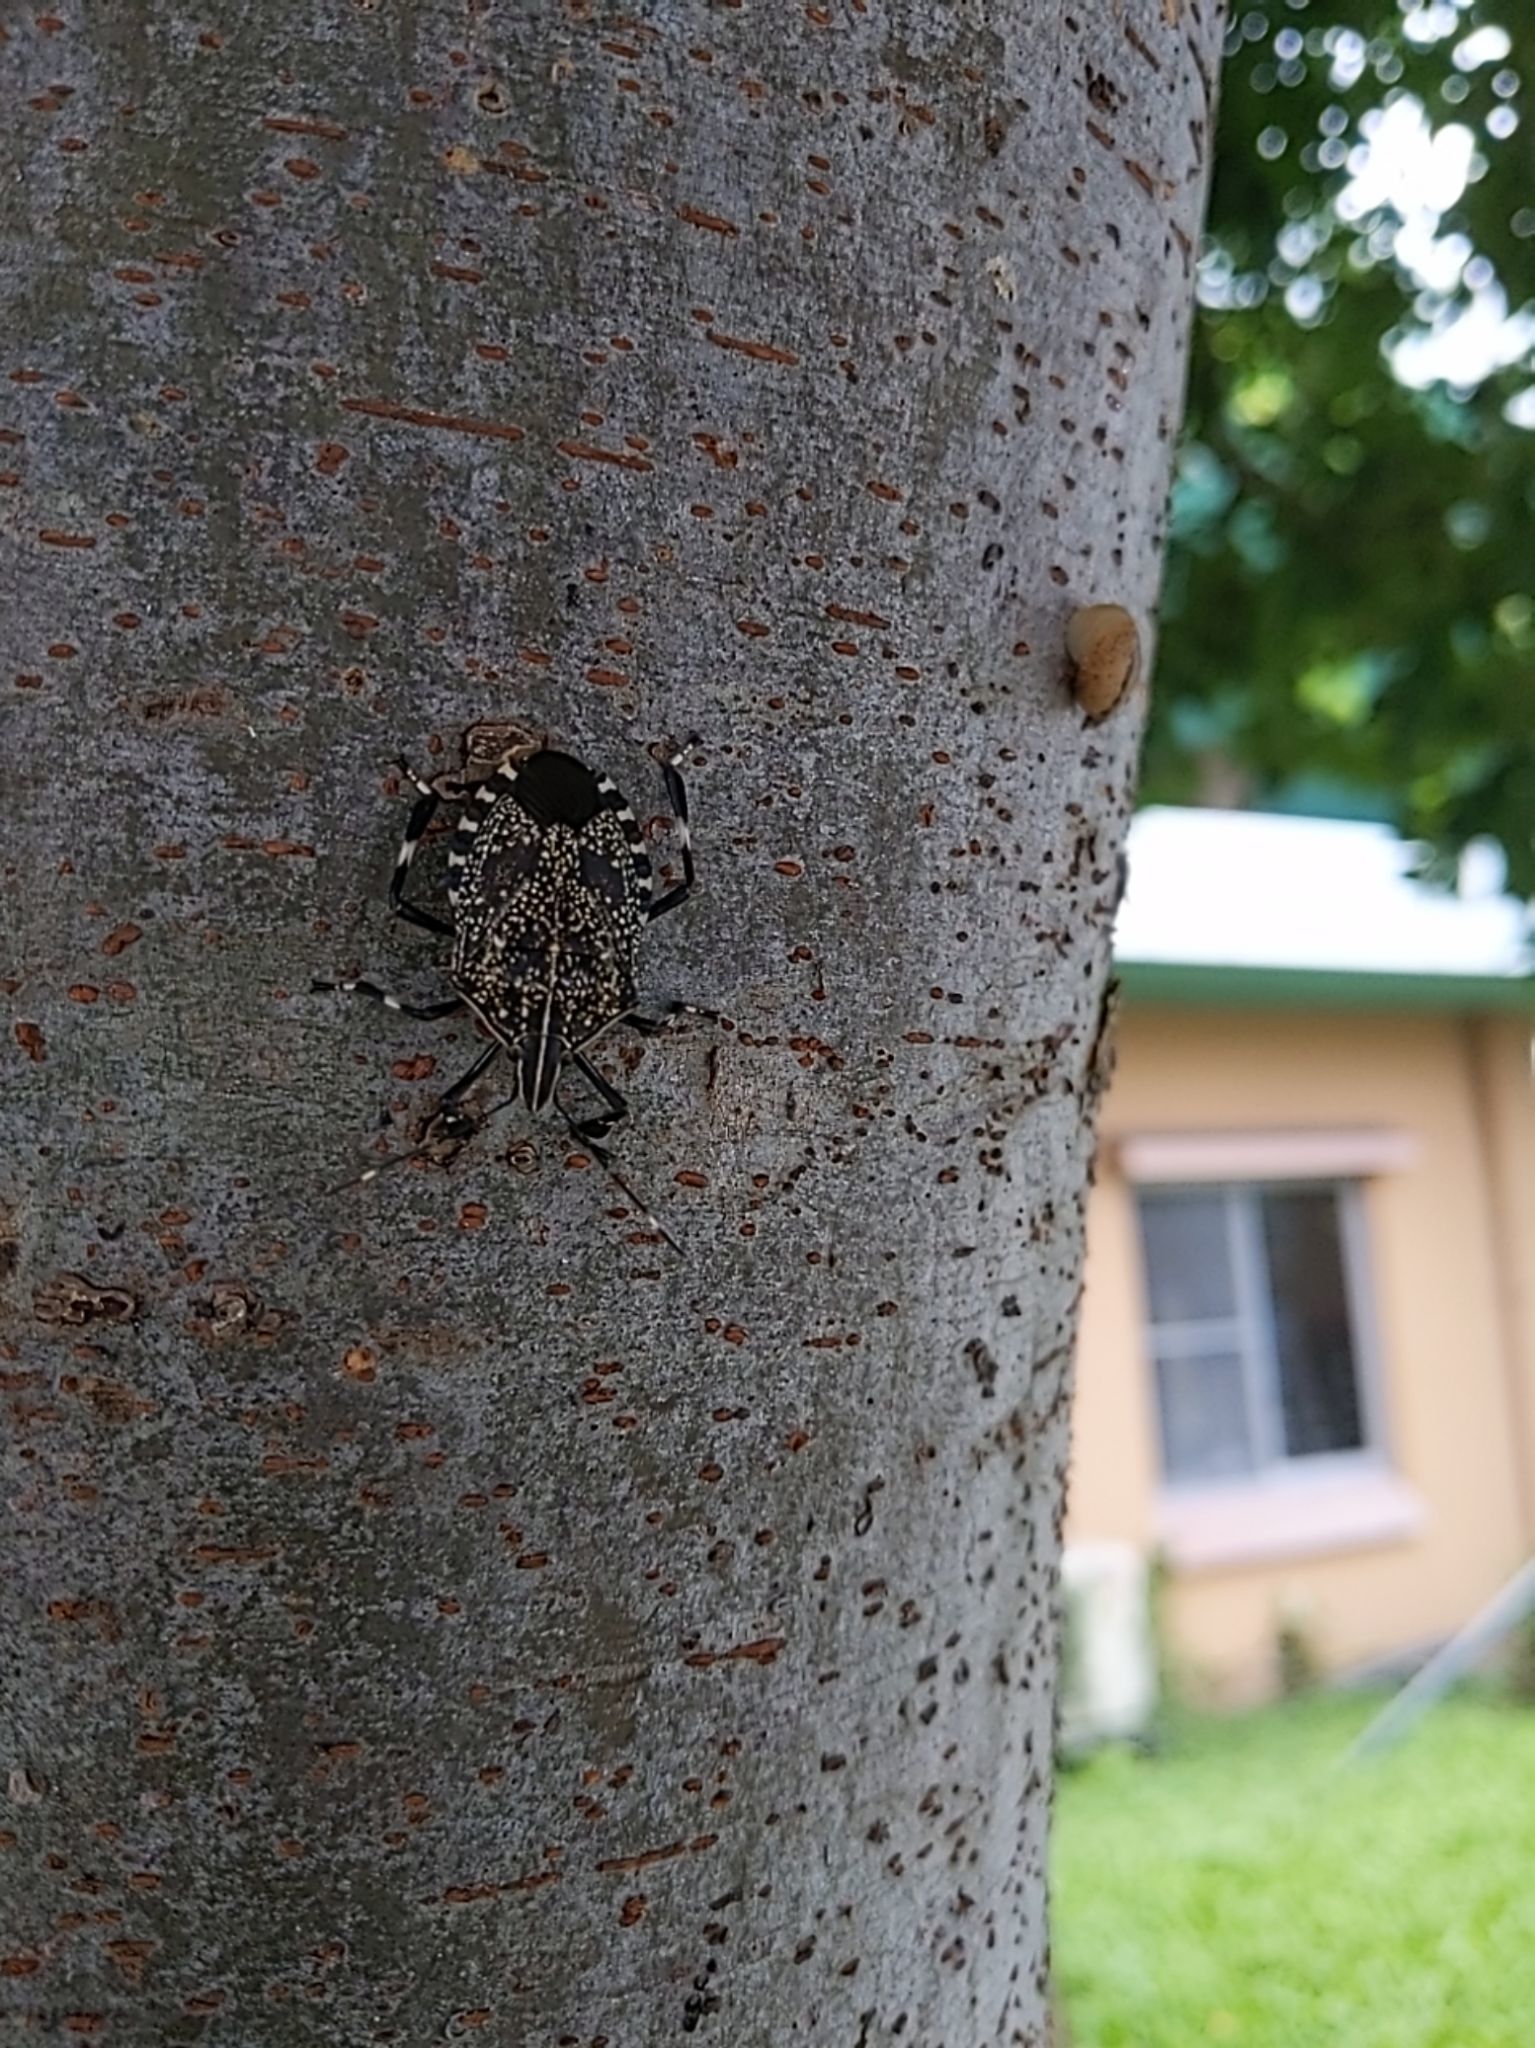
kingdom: Animalia
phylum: Arthropoda
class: Insecta
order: Hemiptera
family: Pentatomidae
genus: Erthesina
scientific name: Erthesina fullo
